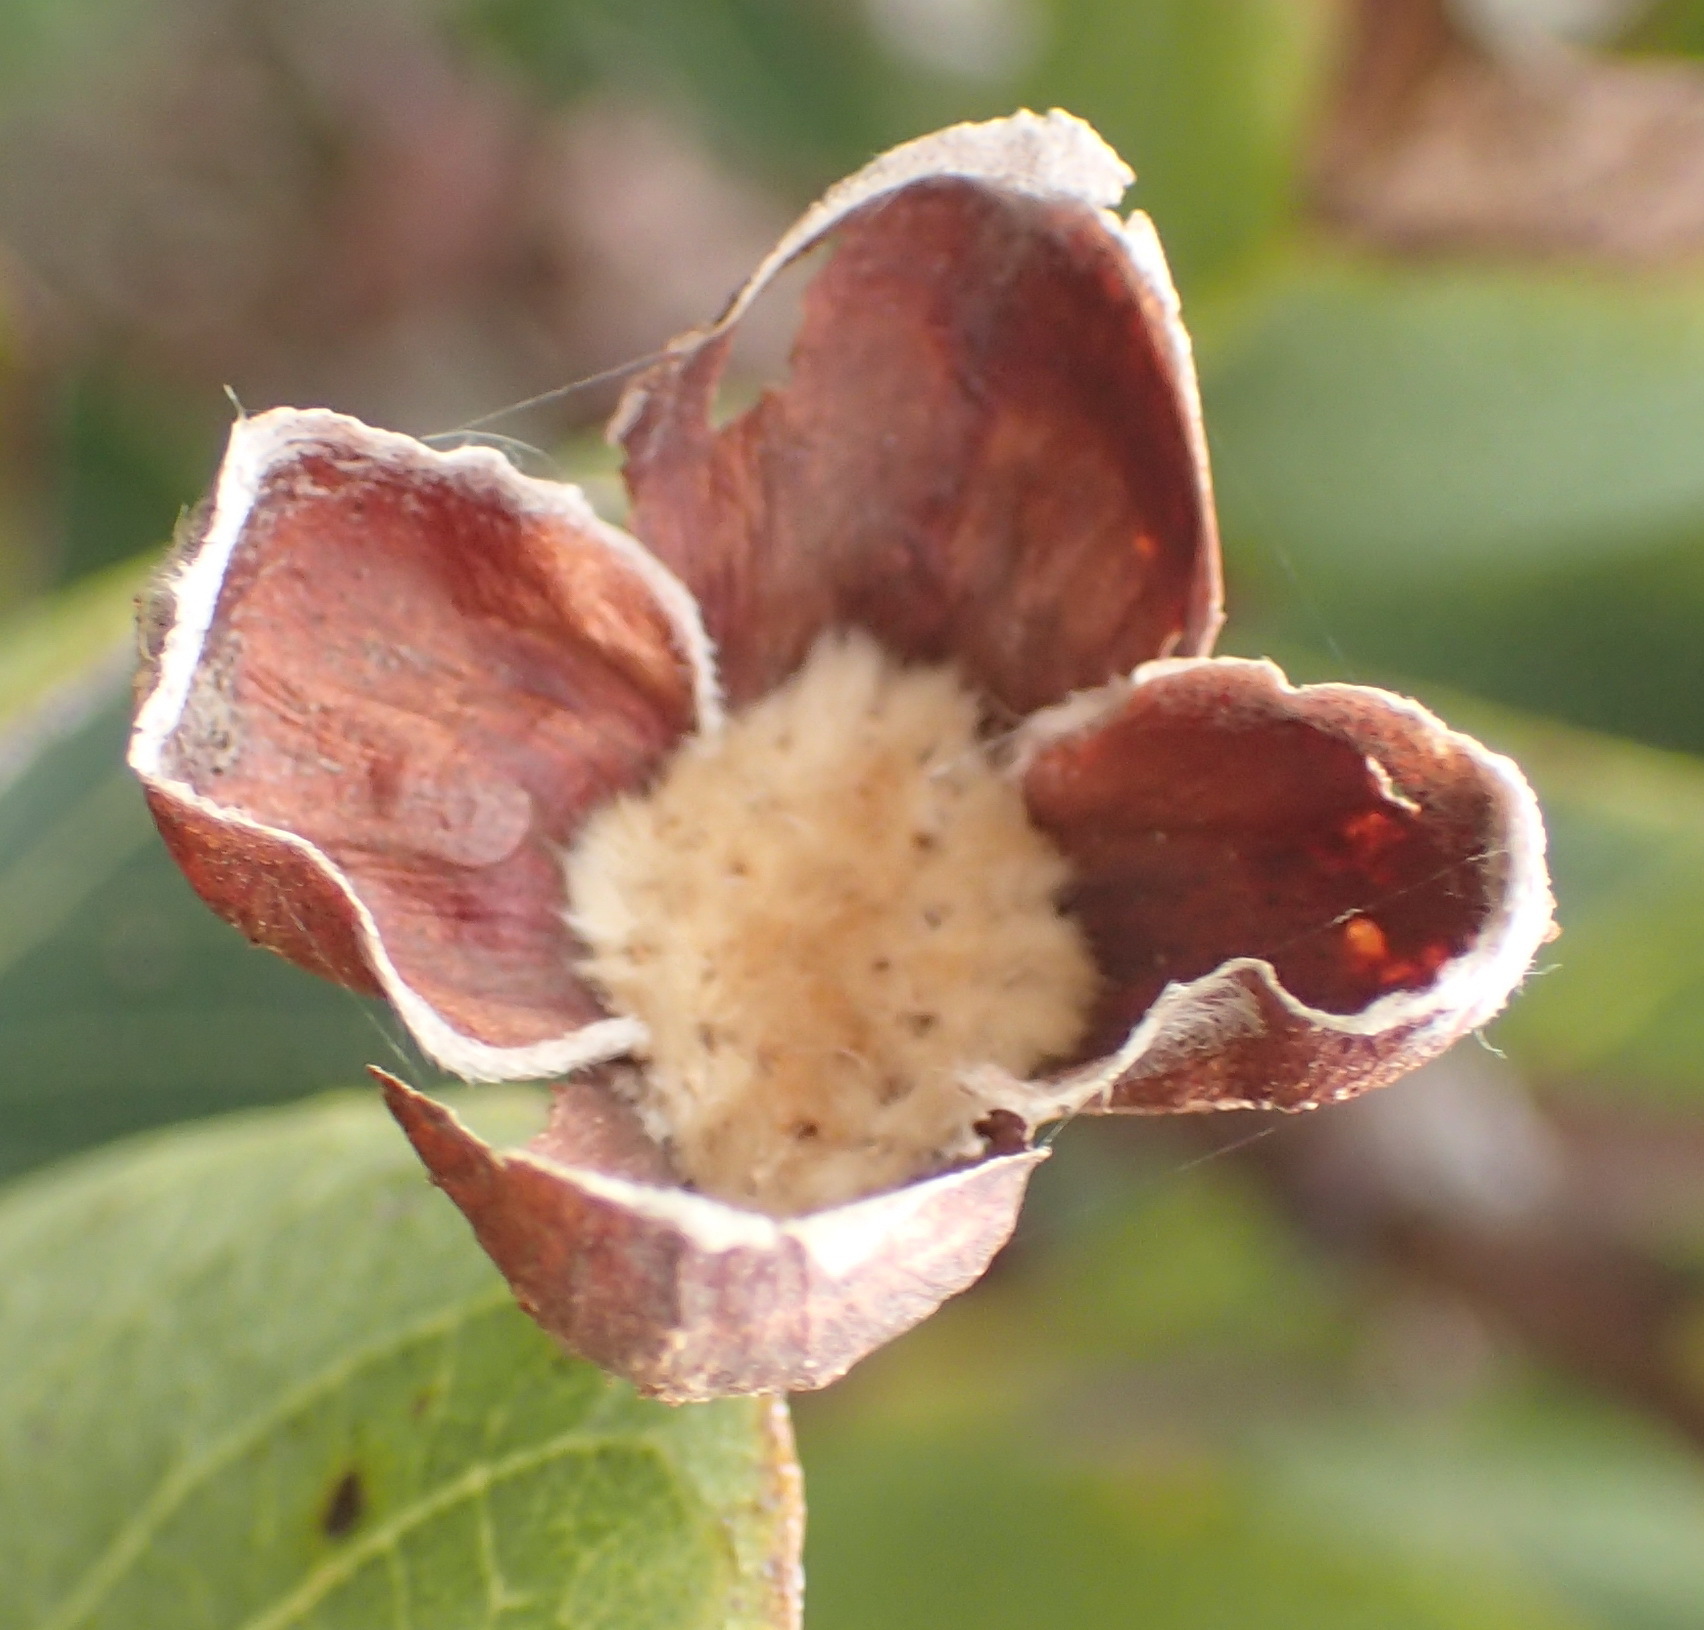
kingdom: Plantae
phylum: Tracheophyta
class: Magnoliopsida
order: Malvales
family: Thymelaeaceae
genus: Dais
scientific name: Dais cotinifolia
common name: Pompon tree
